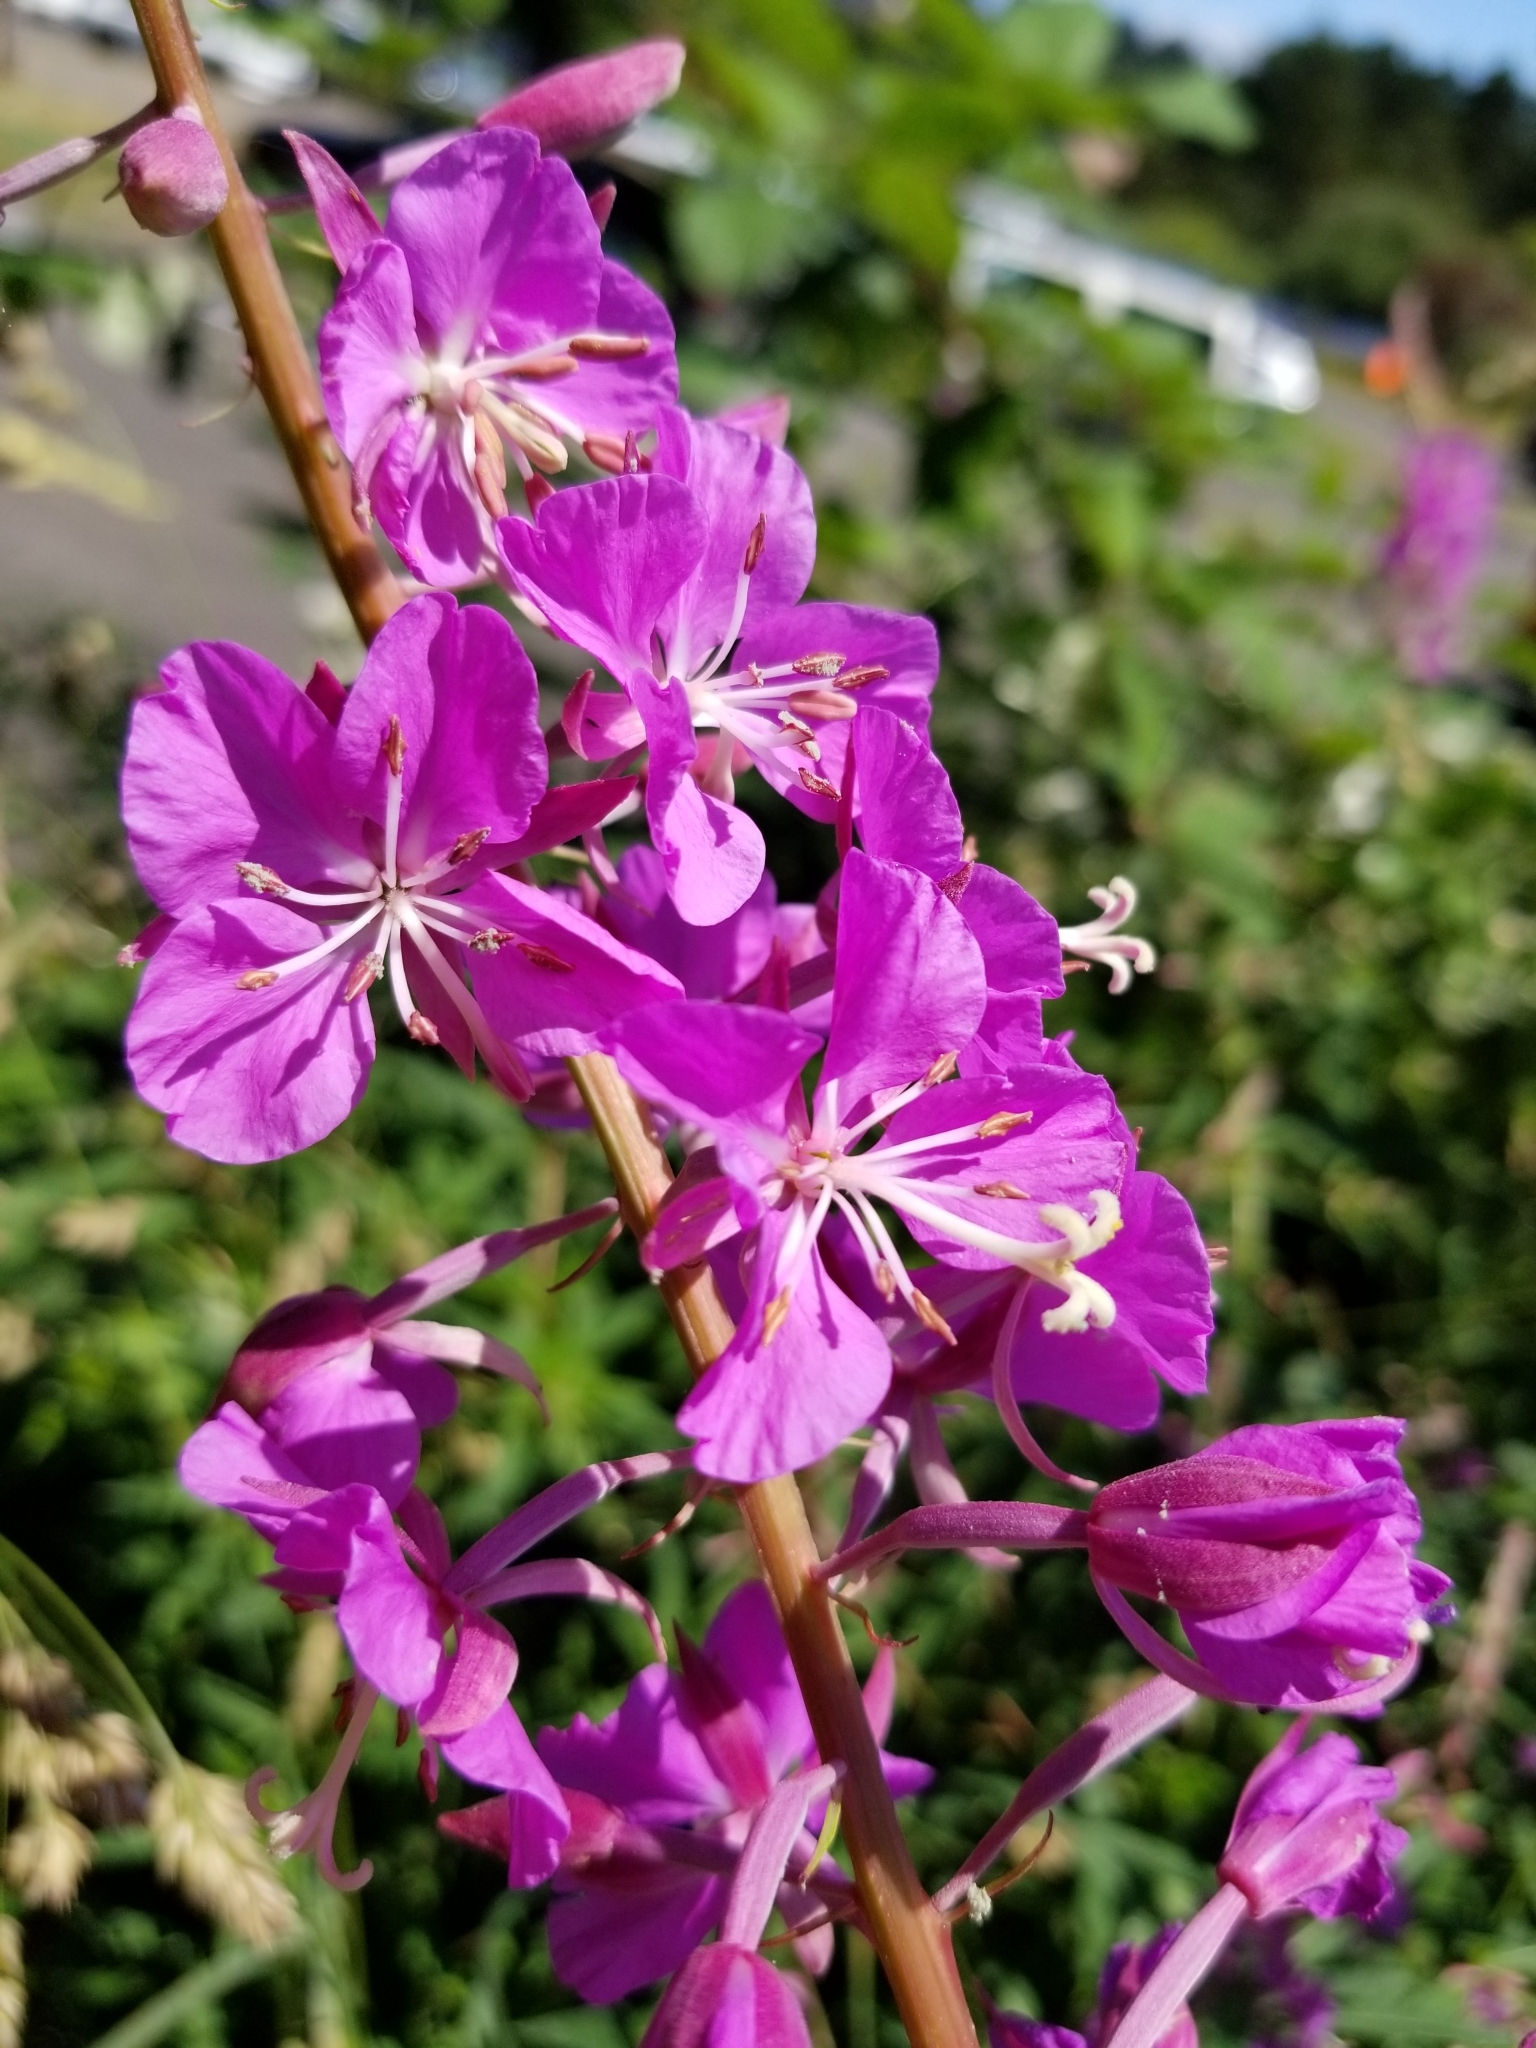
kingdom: Plantae
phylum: Tracheophyta
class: Magnoliopsida
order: Myrtales
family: Onagraceae
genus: Chamaenerion
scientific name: Chamaenerion angustifolium
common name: Fireweed
